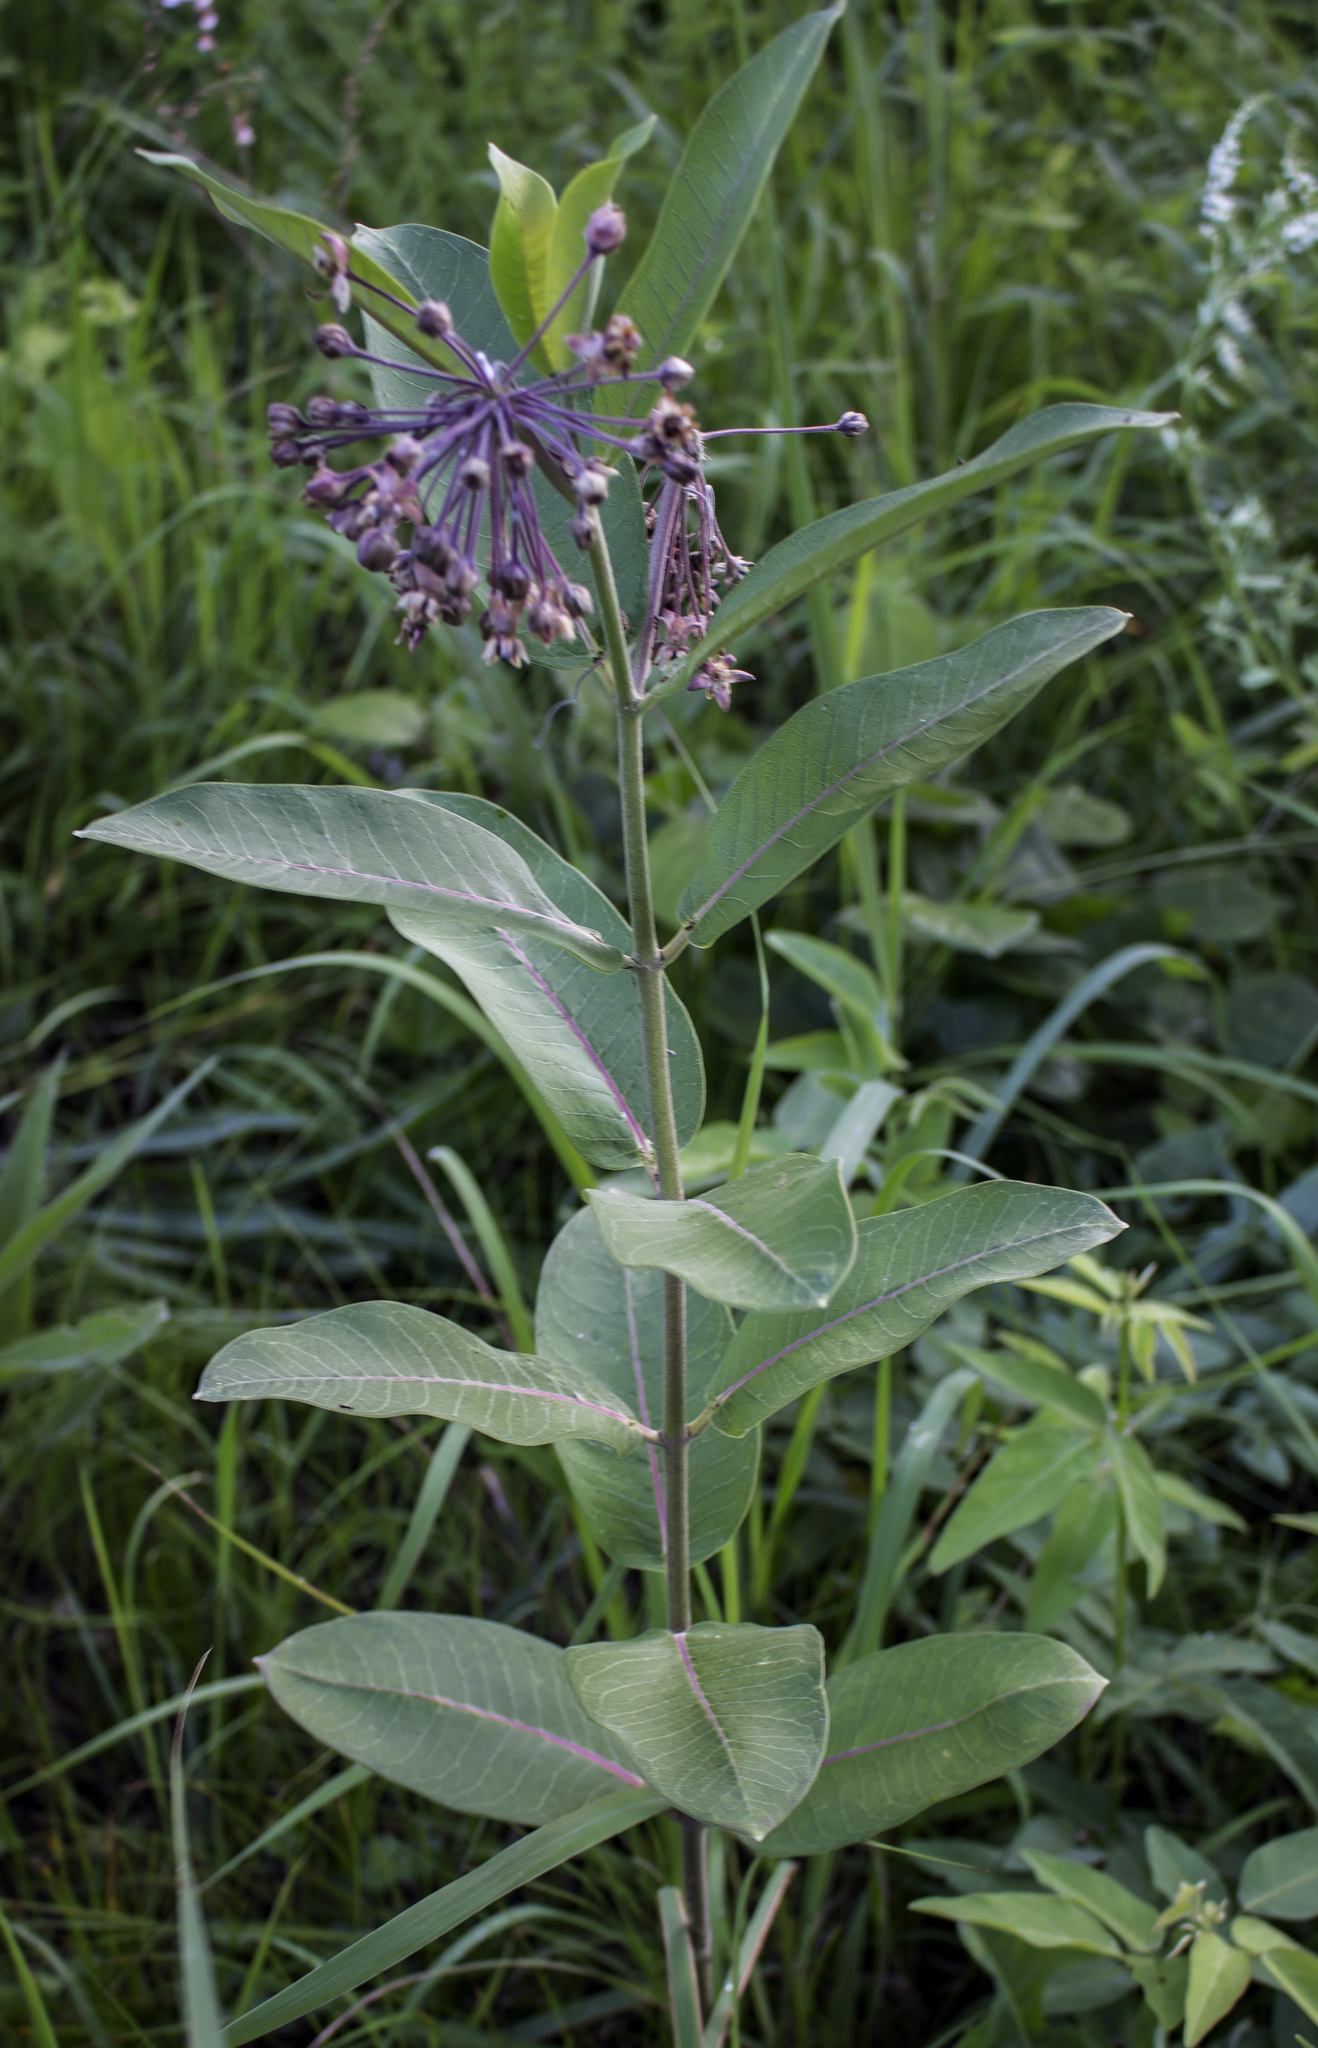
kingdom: Plantae
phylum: Tracheophyta
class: Magnoliopsida
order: Gentianales
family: Apocynaceae
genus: Asclepias
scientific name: Asclepias syriaca
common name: Common milkweed
